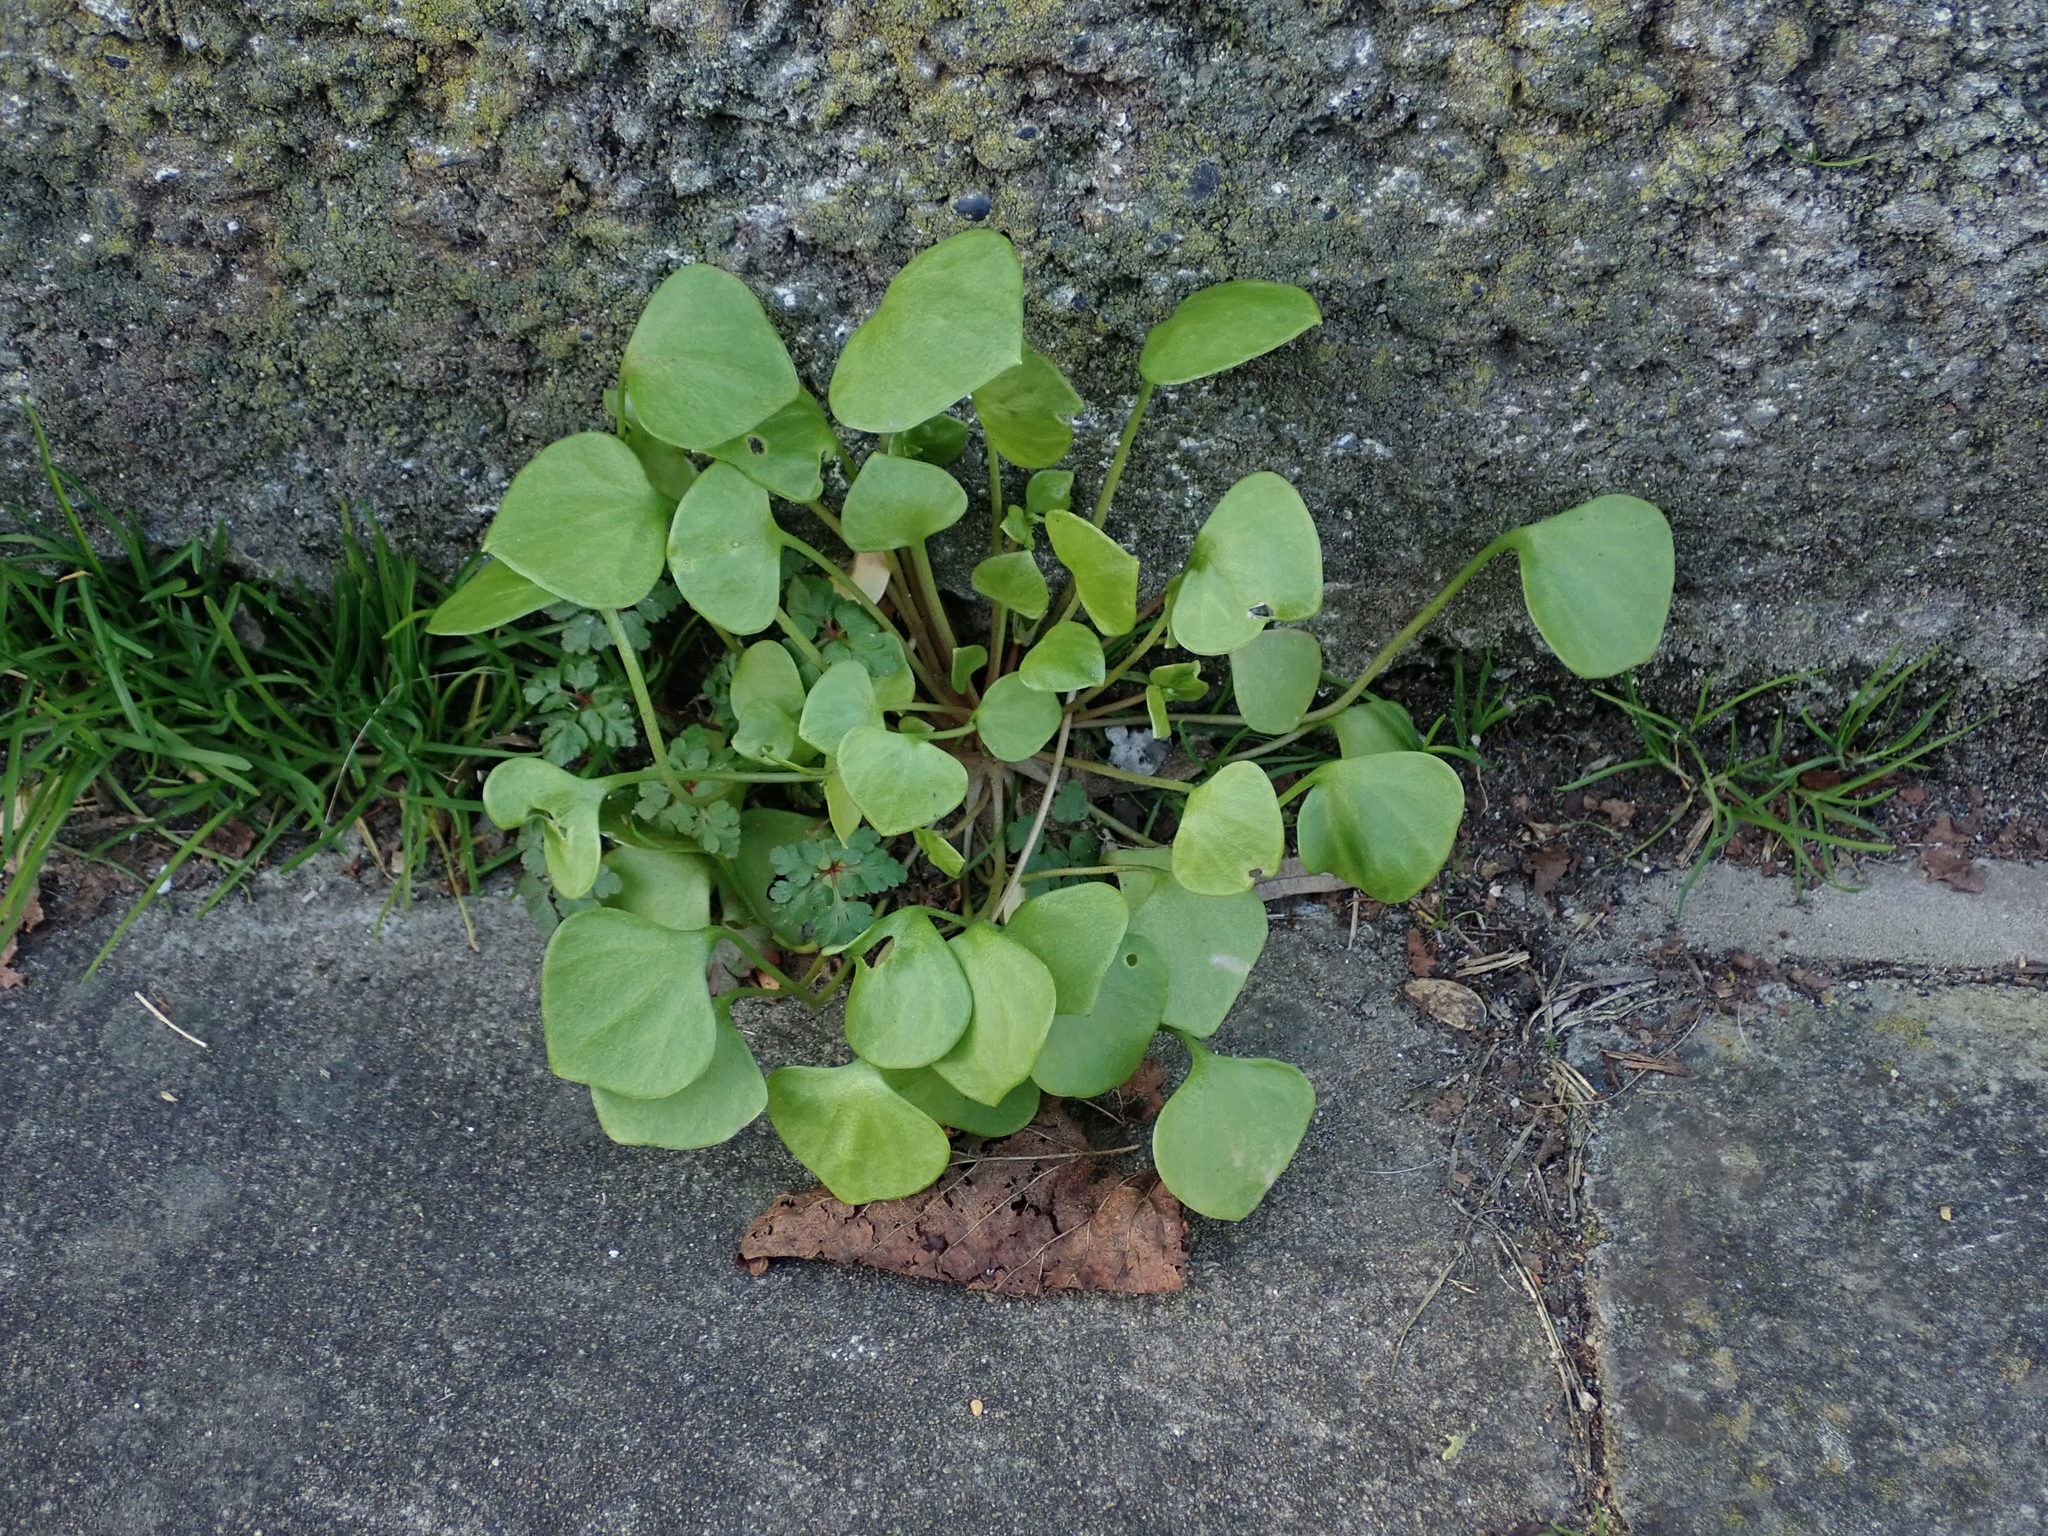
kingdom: Plantae
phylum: Tracheophyta
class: Magnoliopsida
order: Caryophyllales
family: Montiaceae
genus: Claytonia
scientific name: Claytonia perfoliata
